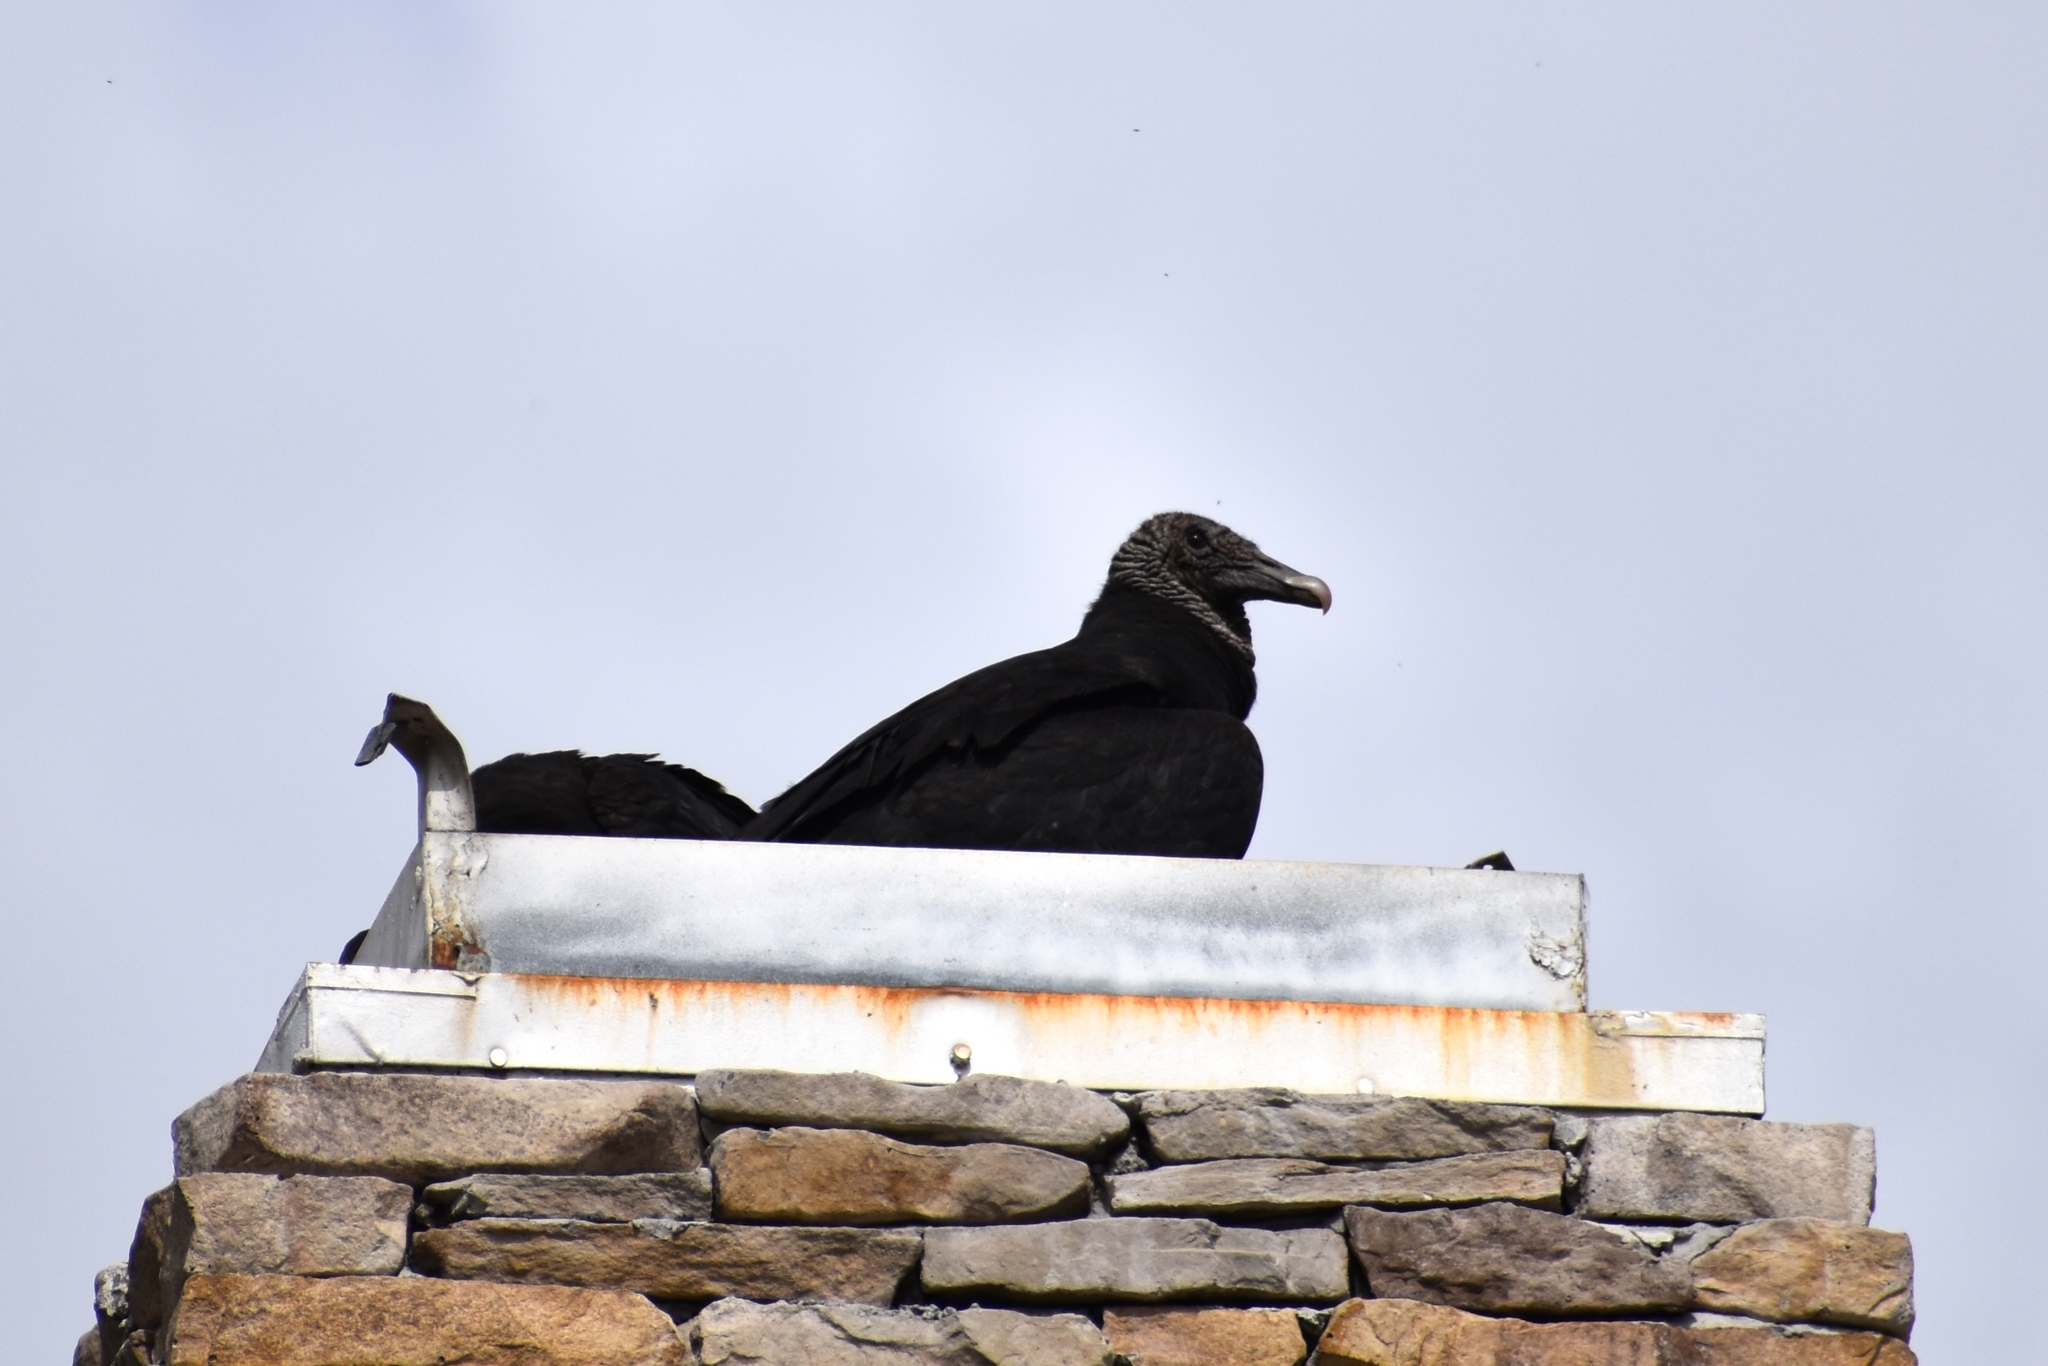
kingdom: Animalia
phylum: Chordata
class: Aves
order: Accipitriformes
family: Cathartidae
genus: Coragyps
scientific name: Coragyps atratus
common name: Black vulture
